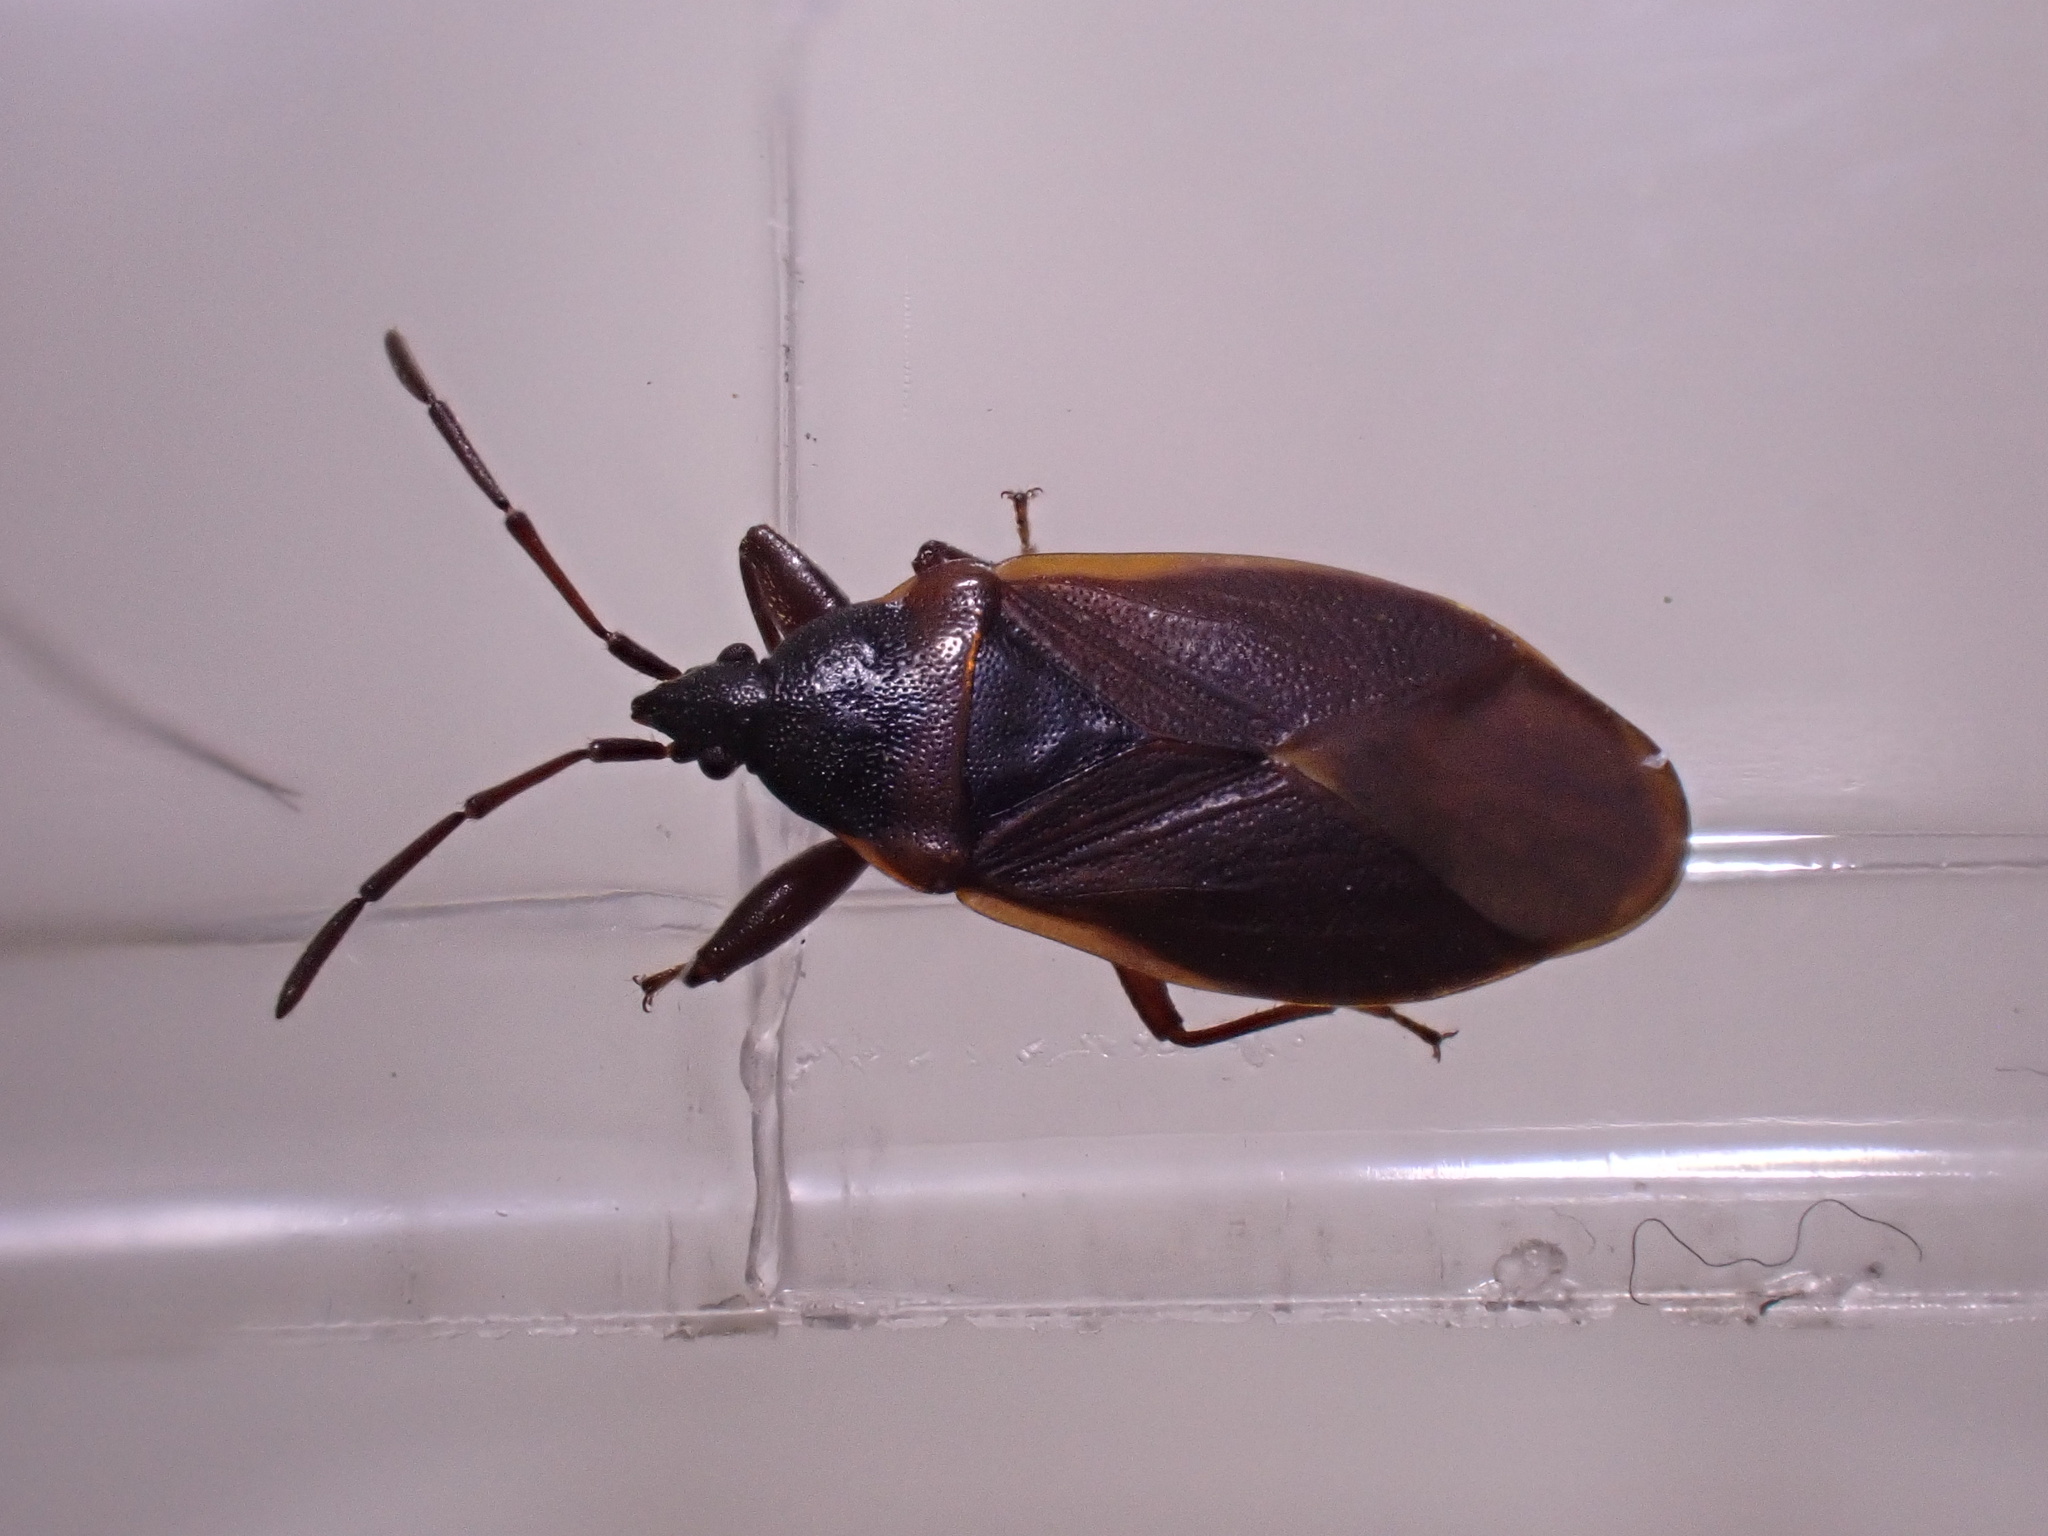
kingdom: Animalia
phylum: Arthropoda
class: Insecta
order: Hemiptera
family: Rhyparochromidae
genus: Gastrodes
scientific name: Gastrodes grossipes
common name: Pine cone bug
